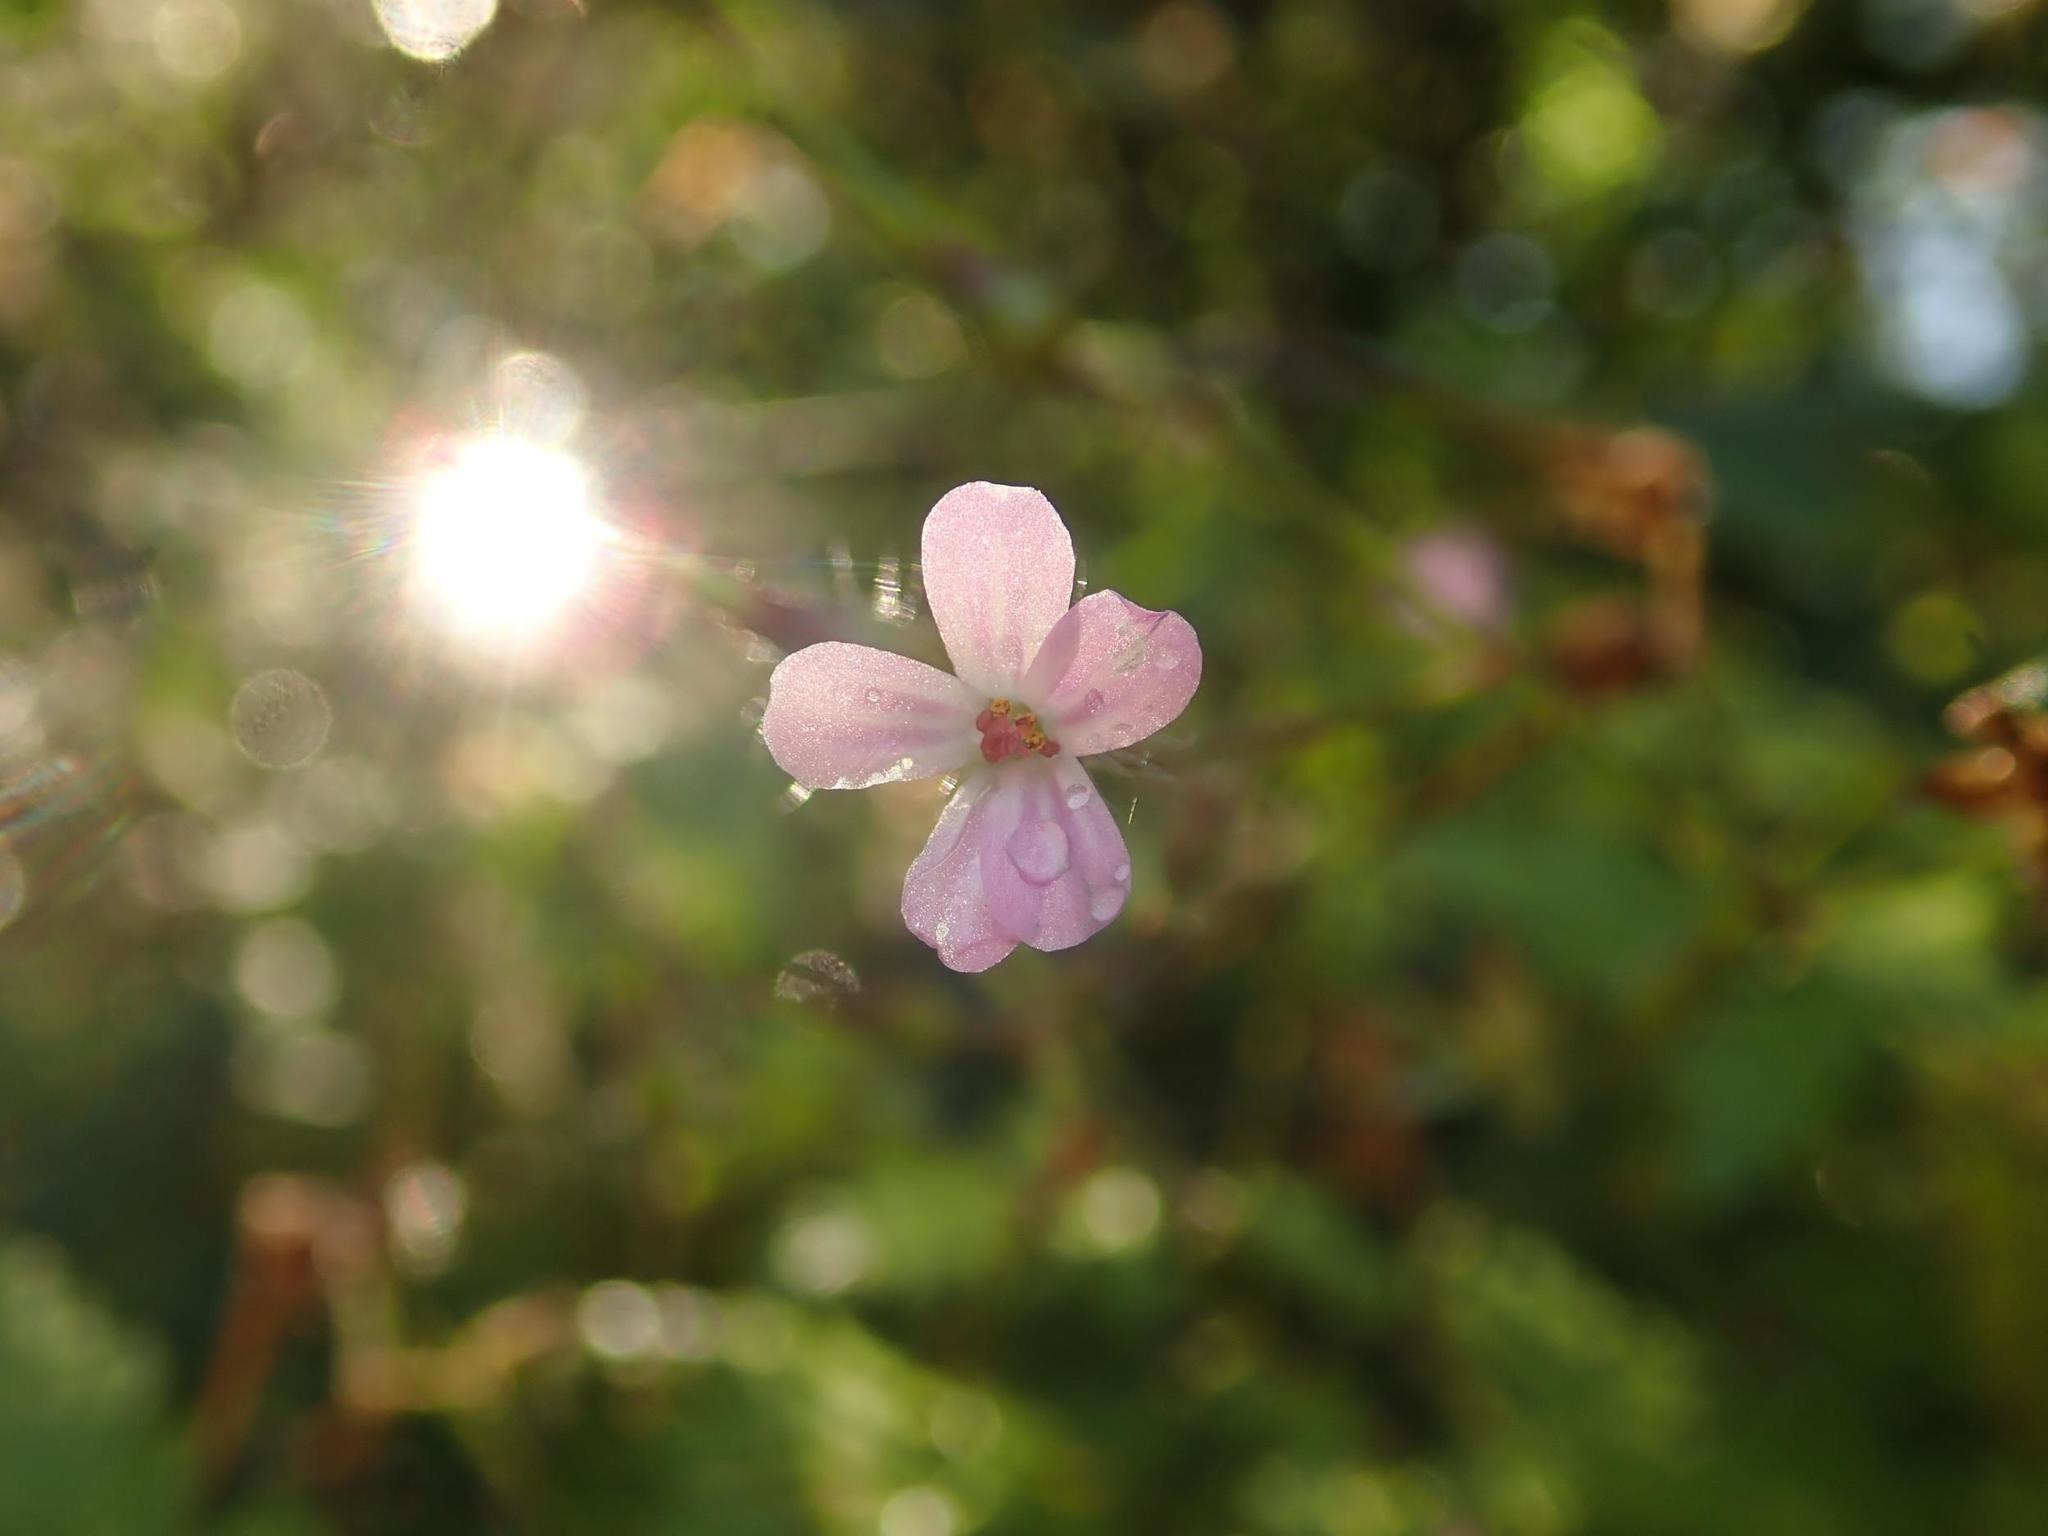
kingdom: Plantae
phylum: Tracheophyta
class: Magnoliopsida
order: Geraniales
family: Geraniaceae
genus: Geranium
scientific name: Geranium robertianum
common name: Herb-robert
